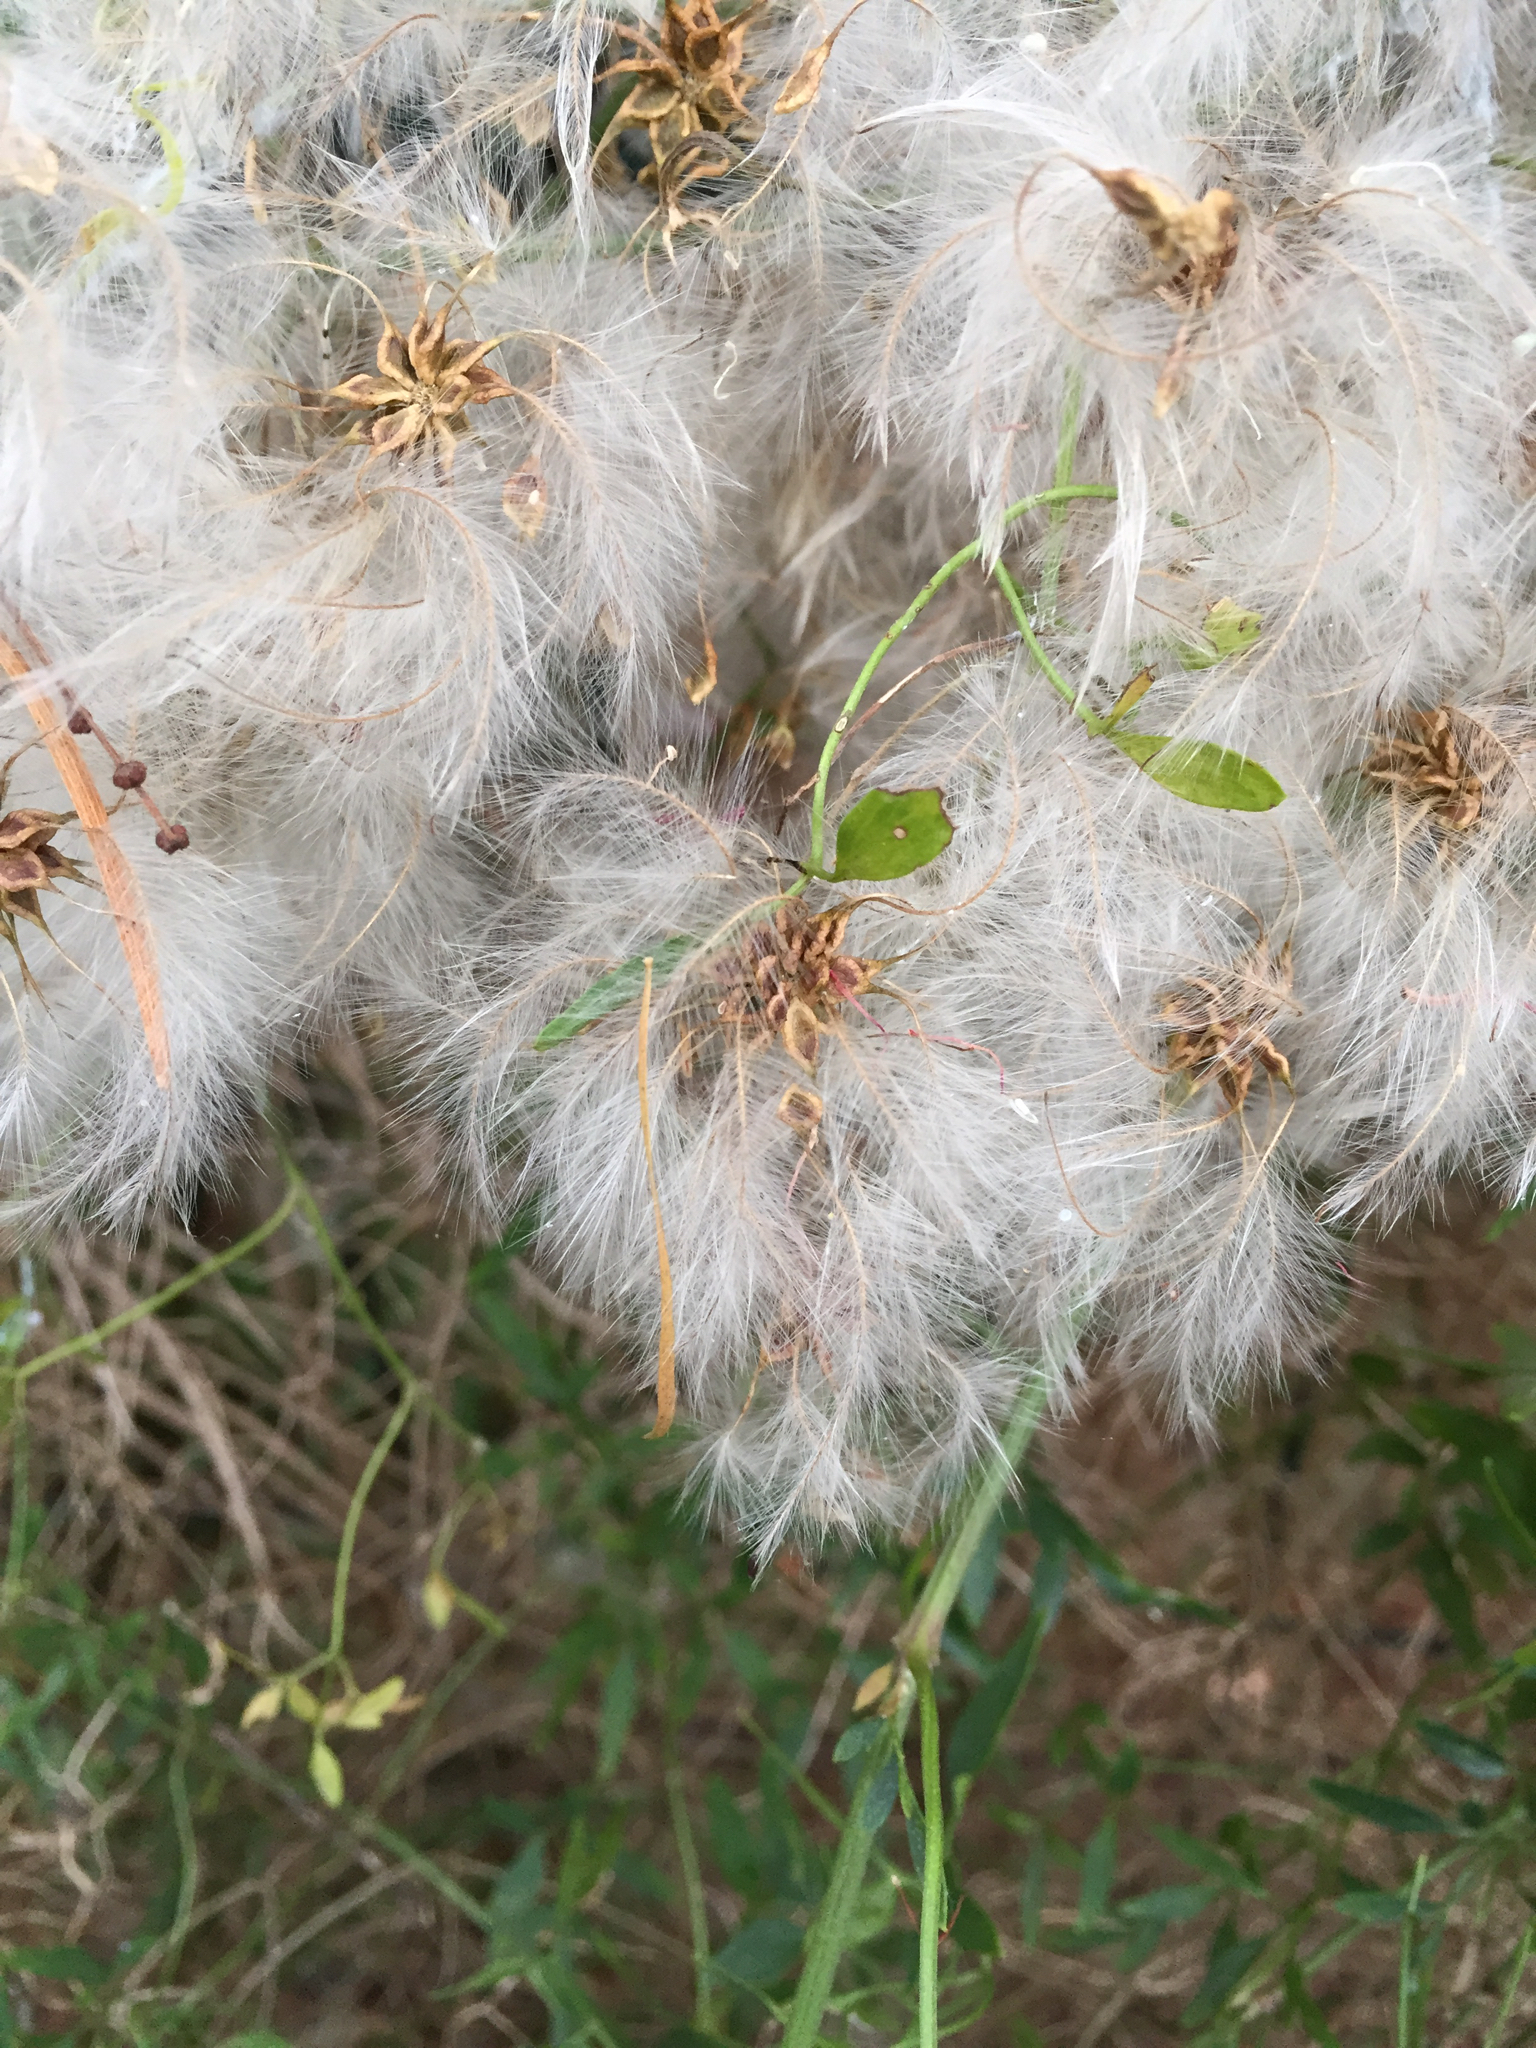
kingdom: Plantae
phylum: Tracheophyta
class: Magnoliopsida
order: Ranunculales
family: Ranunculaceae
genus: Clematis
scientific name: Clematis microphylla
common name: Headachevine
